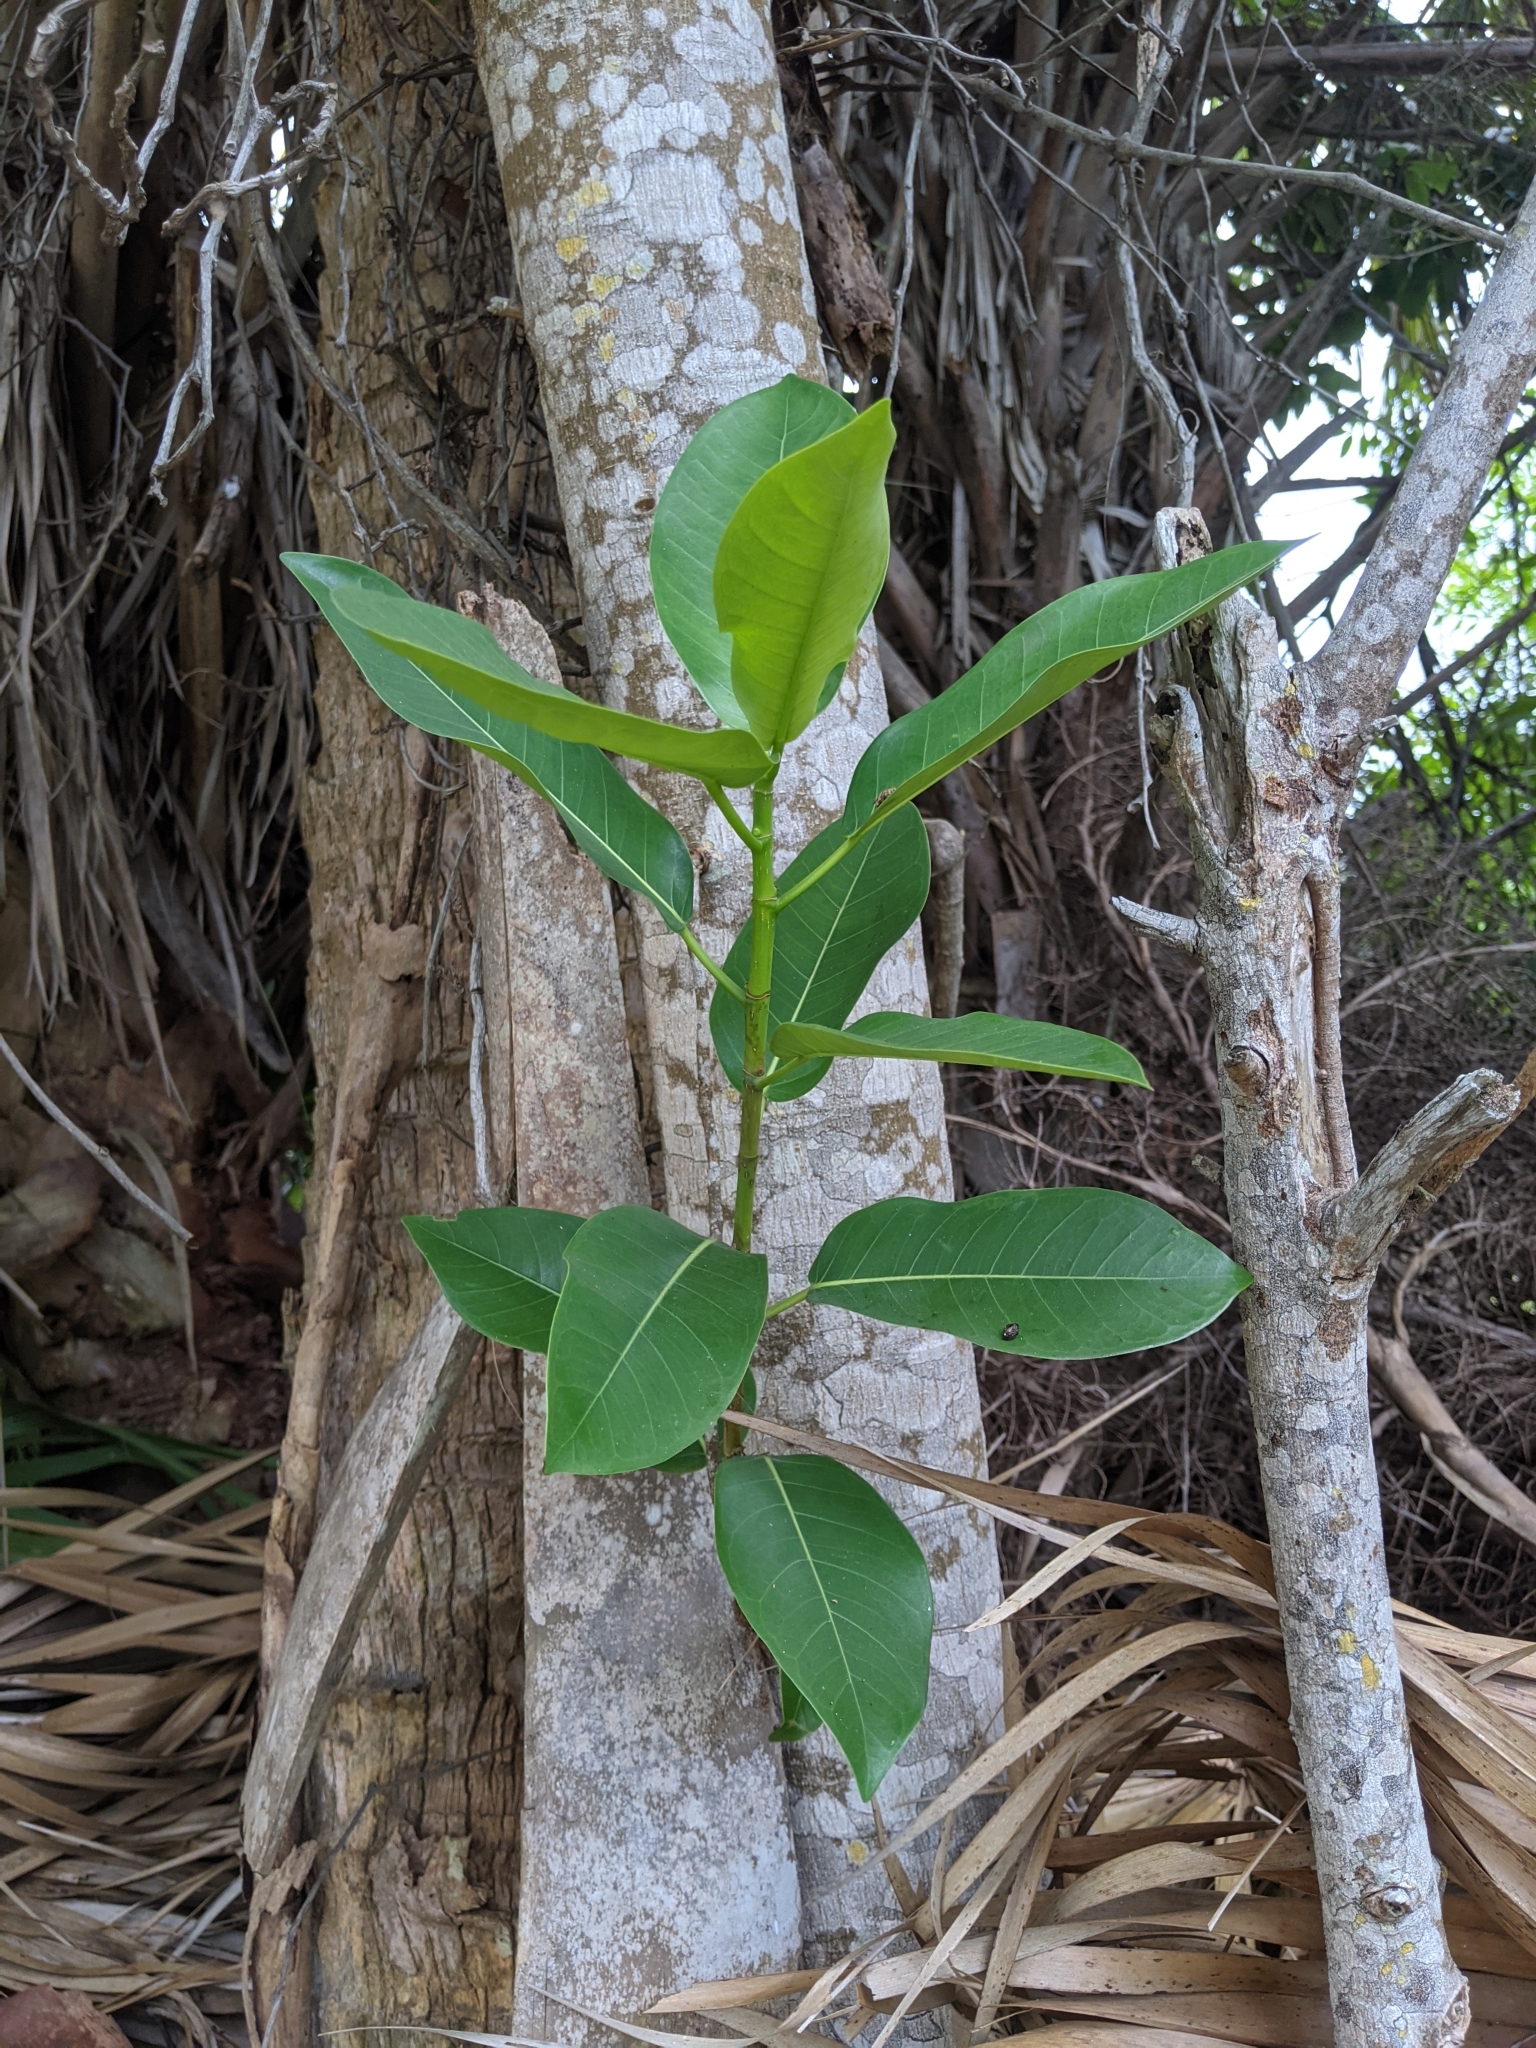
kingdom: Plantae
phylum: Tracheophyta
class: Magnoliopsida
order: Rosales
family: Moraceae
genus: Ficus
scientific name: Ficus aurea
